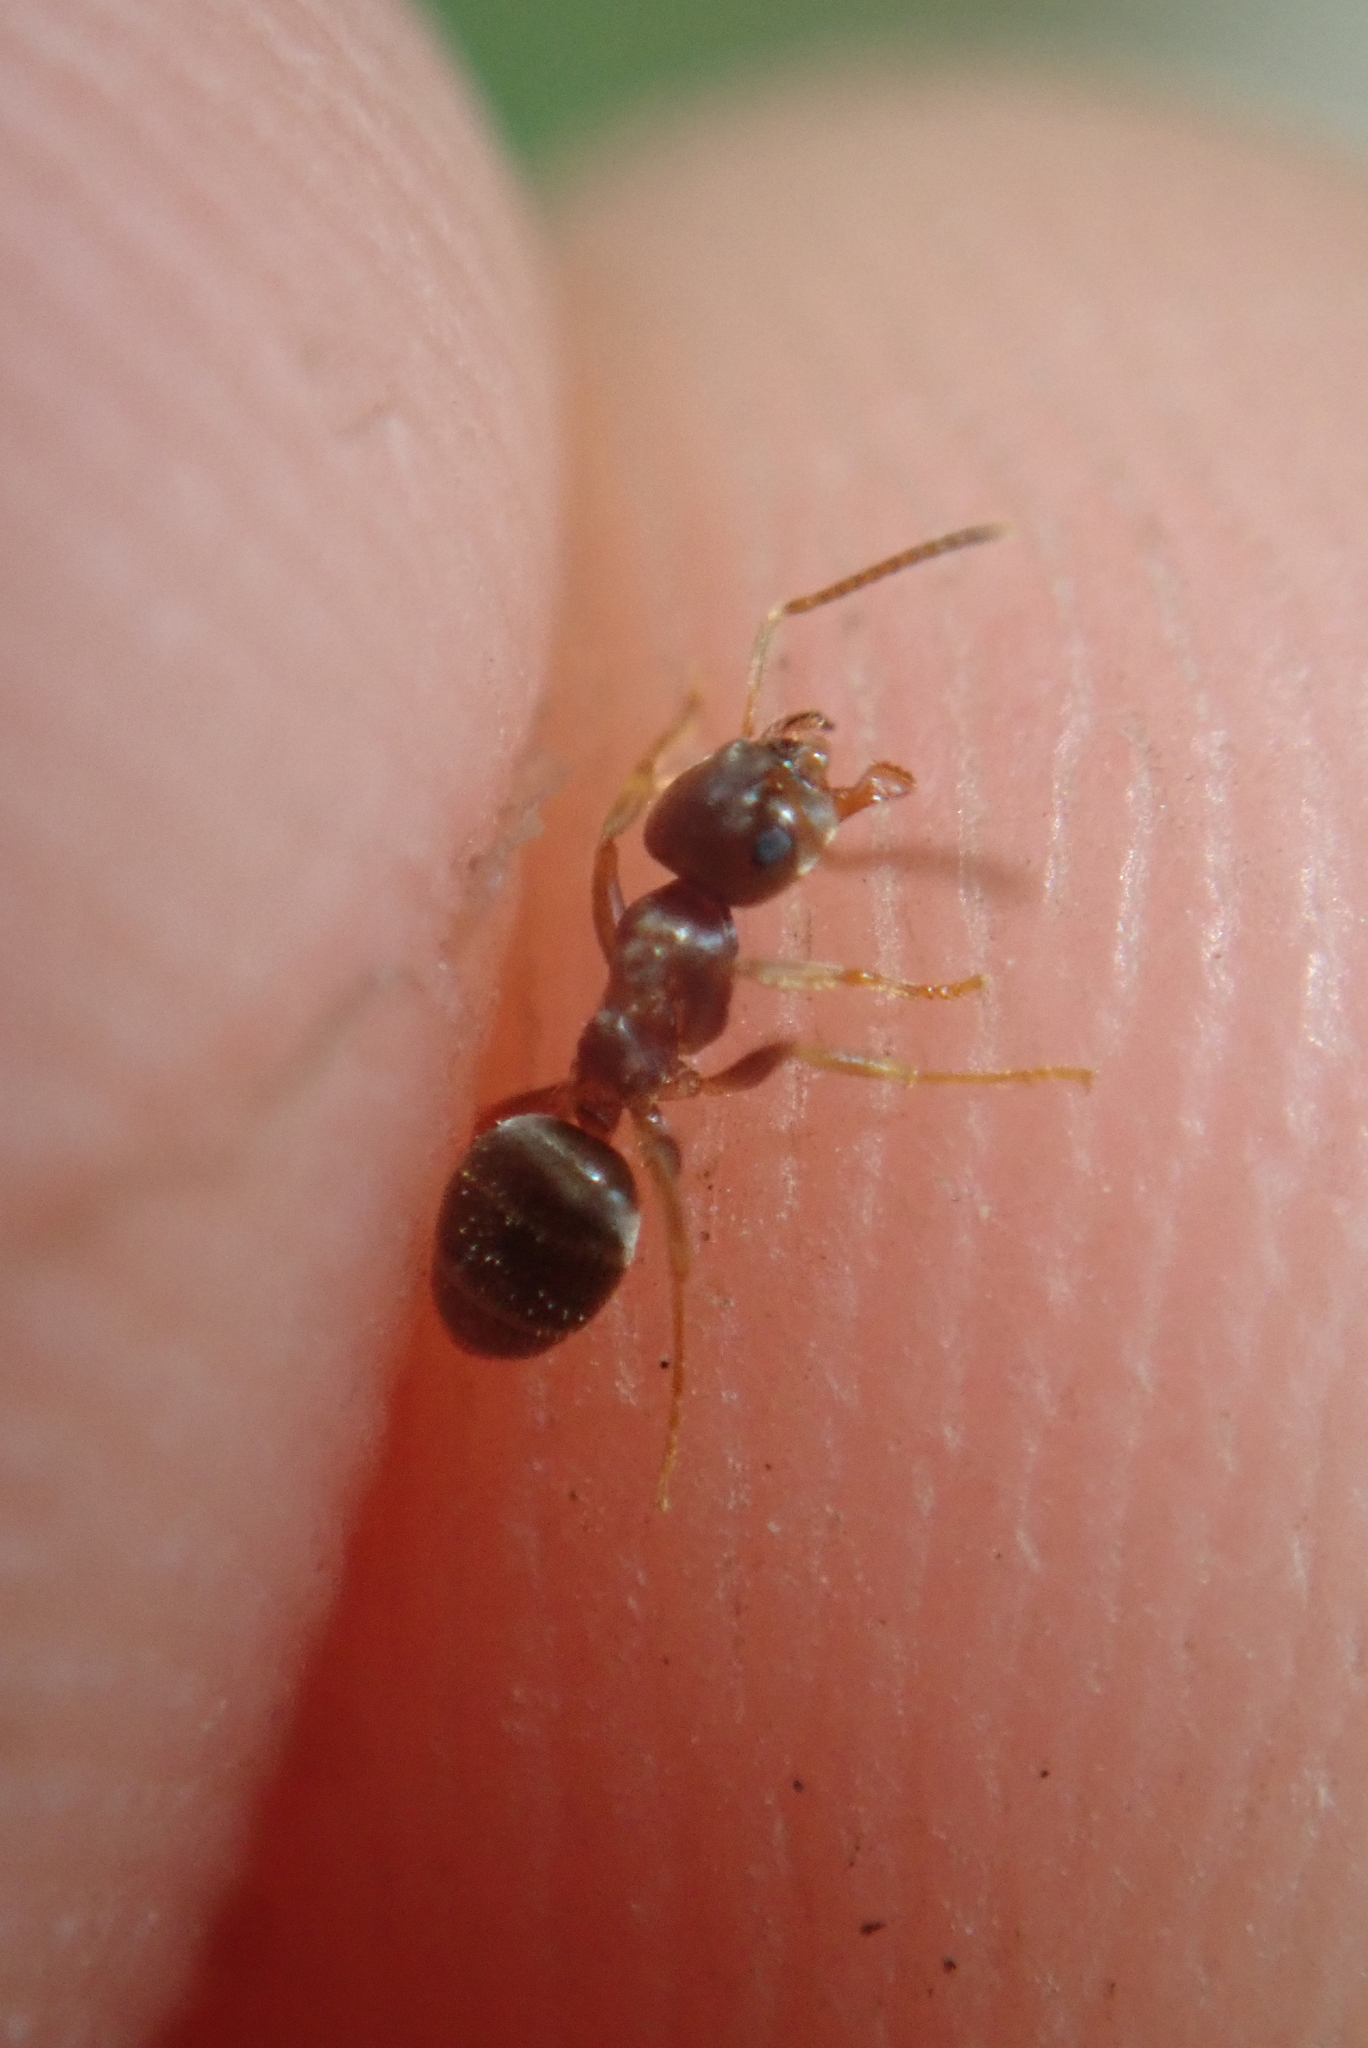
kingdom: Animalia
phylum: Arthropoda
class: Insecta
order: Hymenoptera
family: Formicidae
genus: Lasius
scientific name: Lasius americanus
